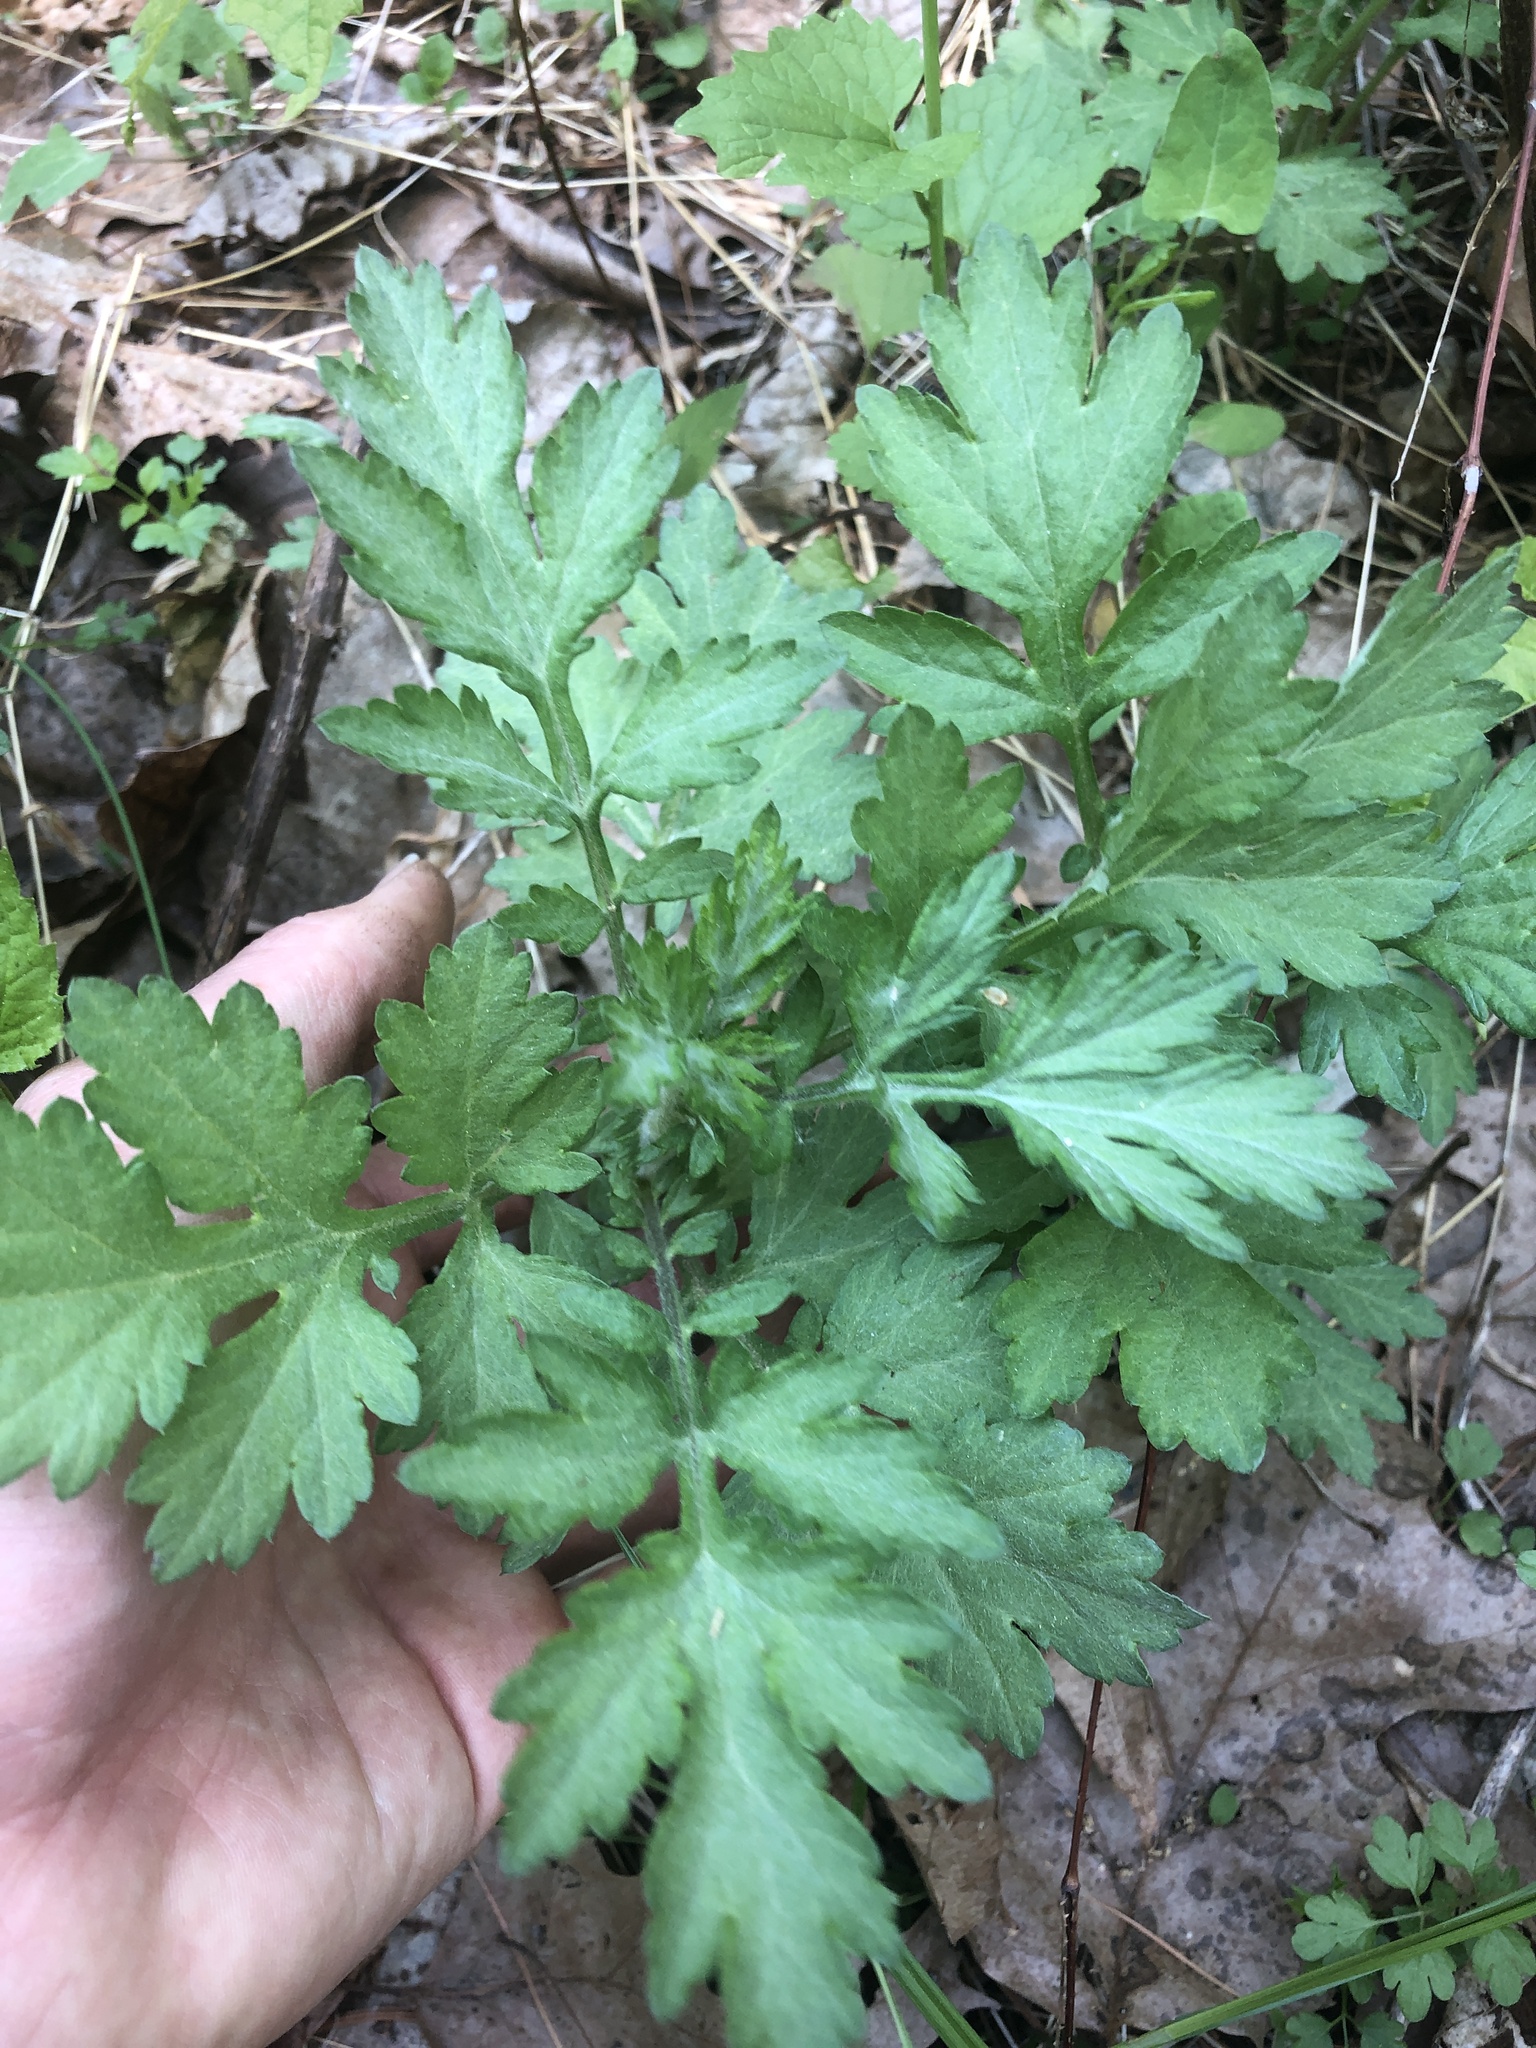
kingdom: Plantae
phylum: Tracheophyta
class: Magnoliopsida
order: Asterales
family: Asteraceae
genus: Artemisia
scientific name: Artemisia vulgaris
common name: Mugwort
